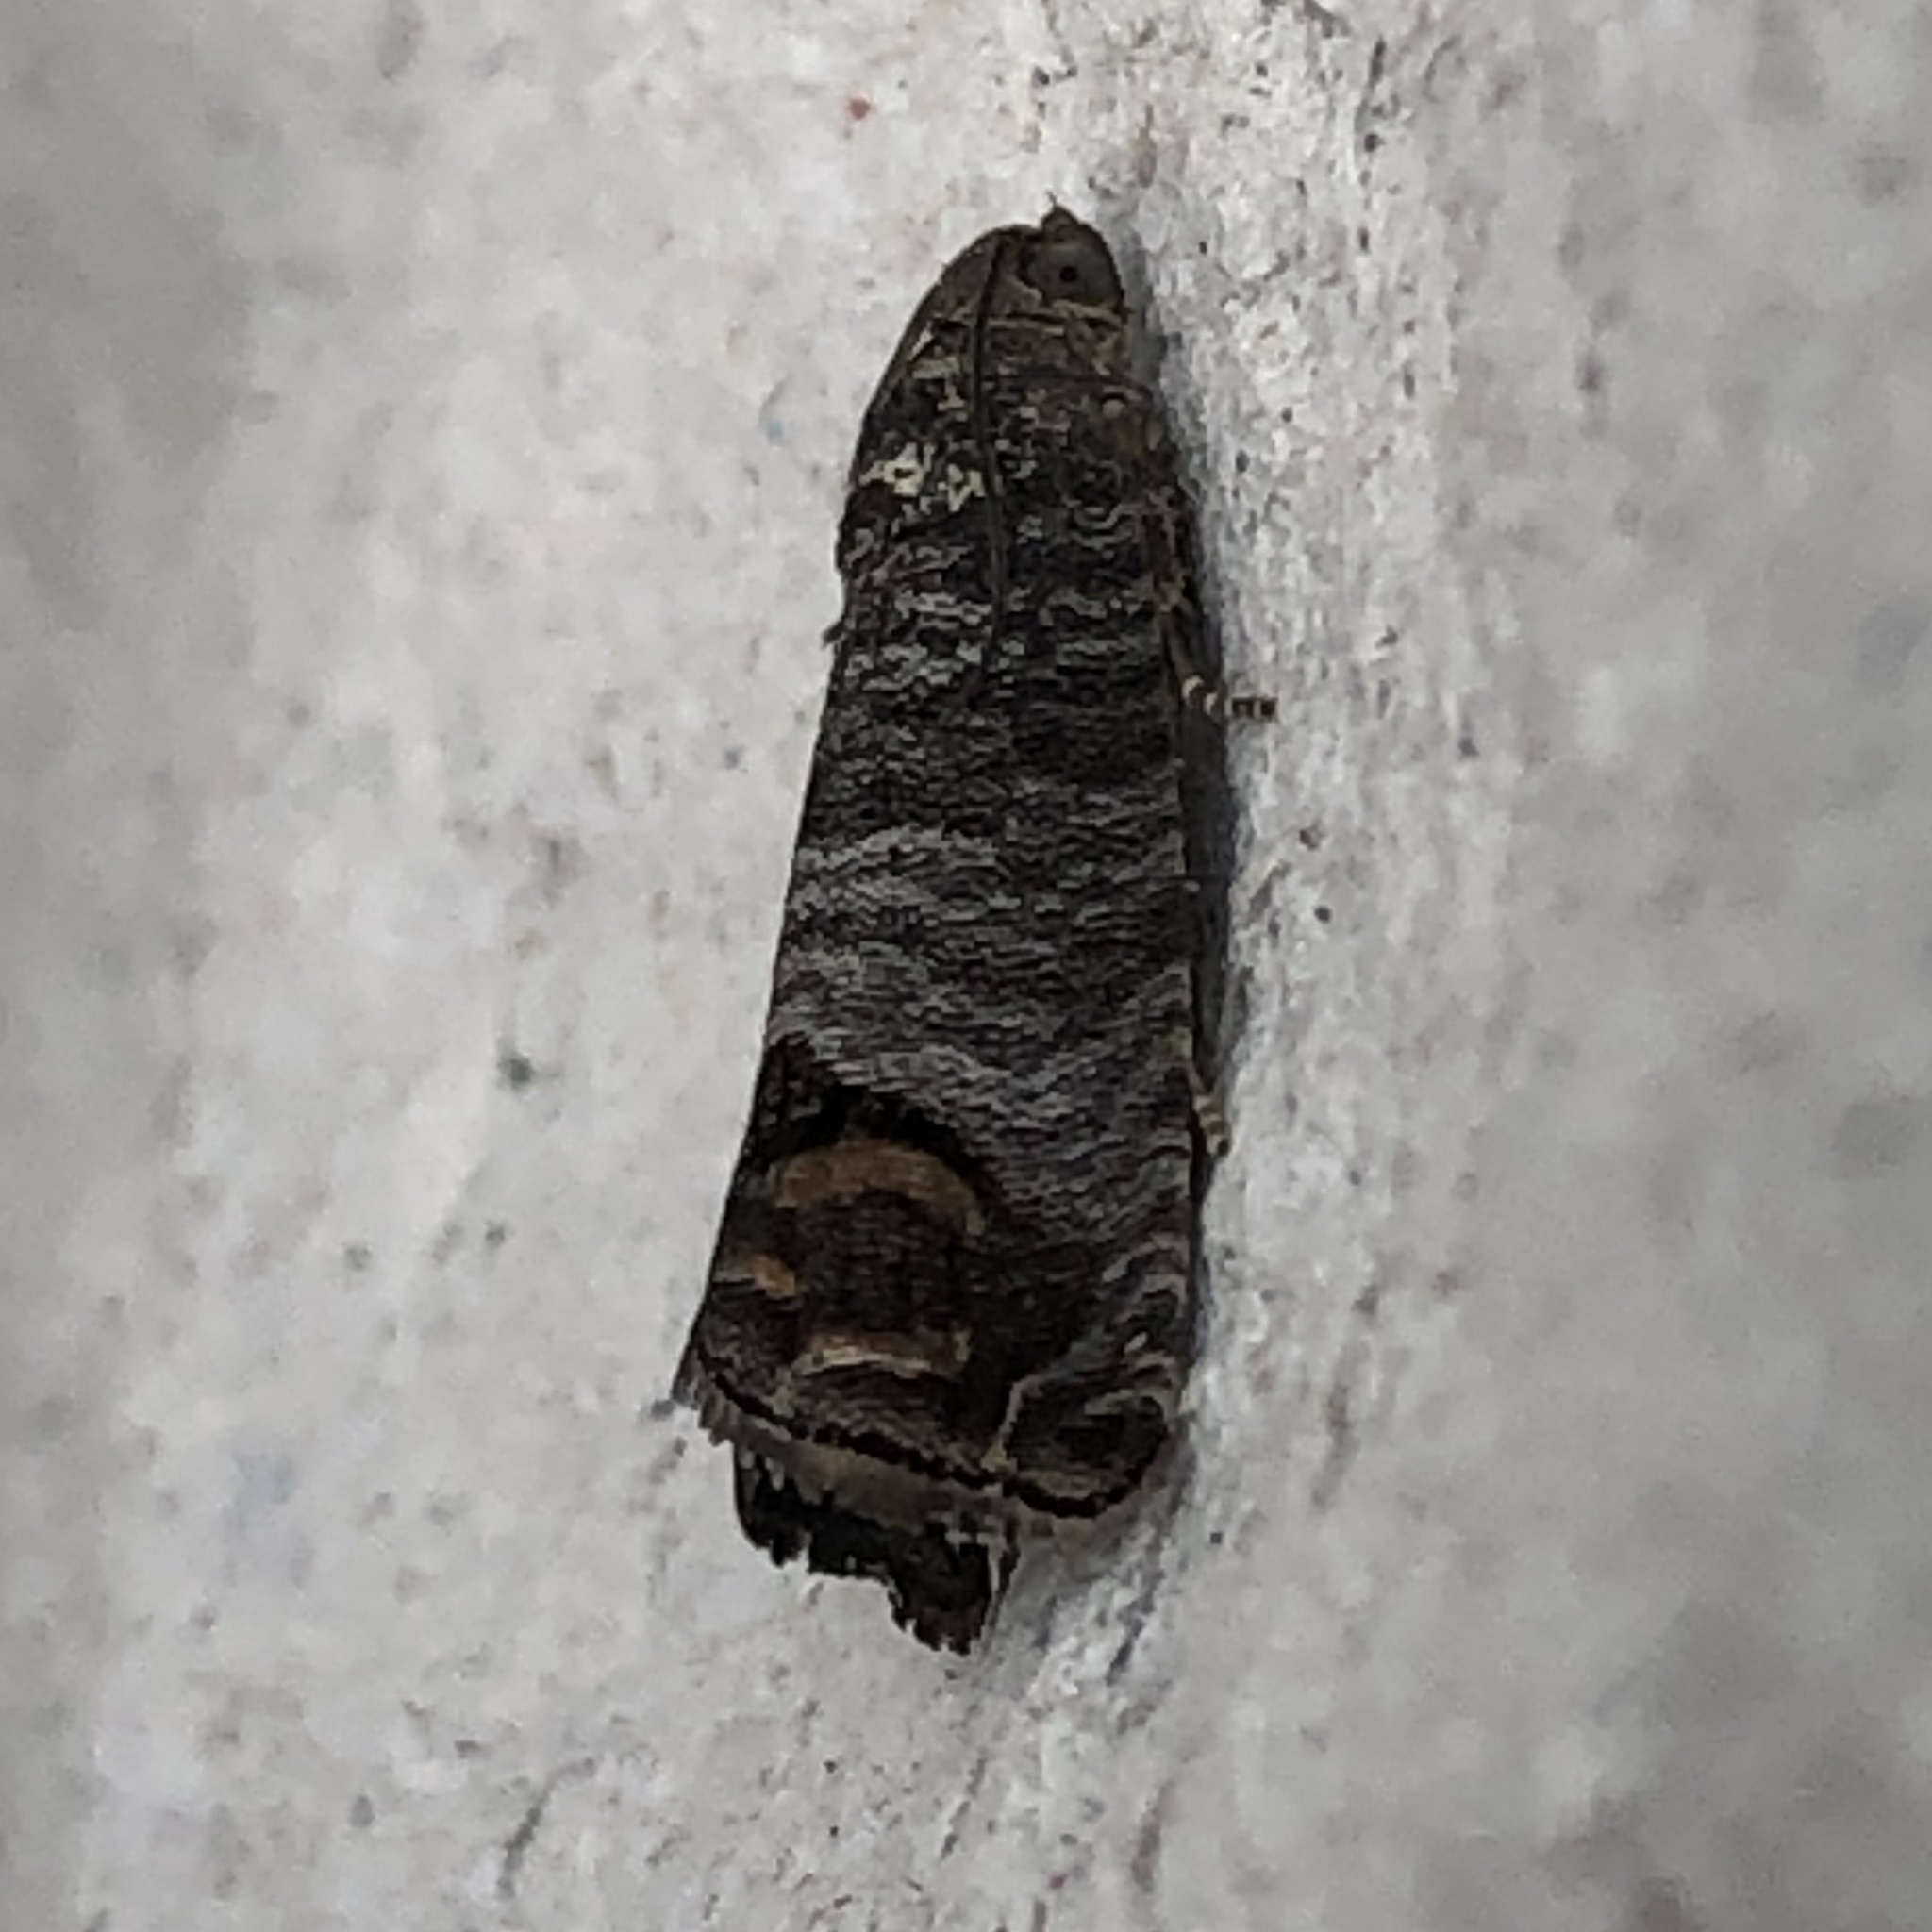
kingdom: Animalia
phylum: Arthropoda
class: Insecta
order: Lepidoptera
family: Tortricidae
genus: Cydia
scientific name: Cydia pomonella
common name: Codling moth
